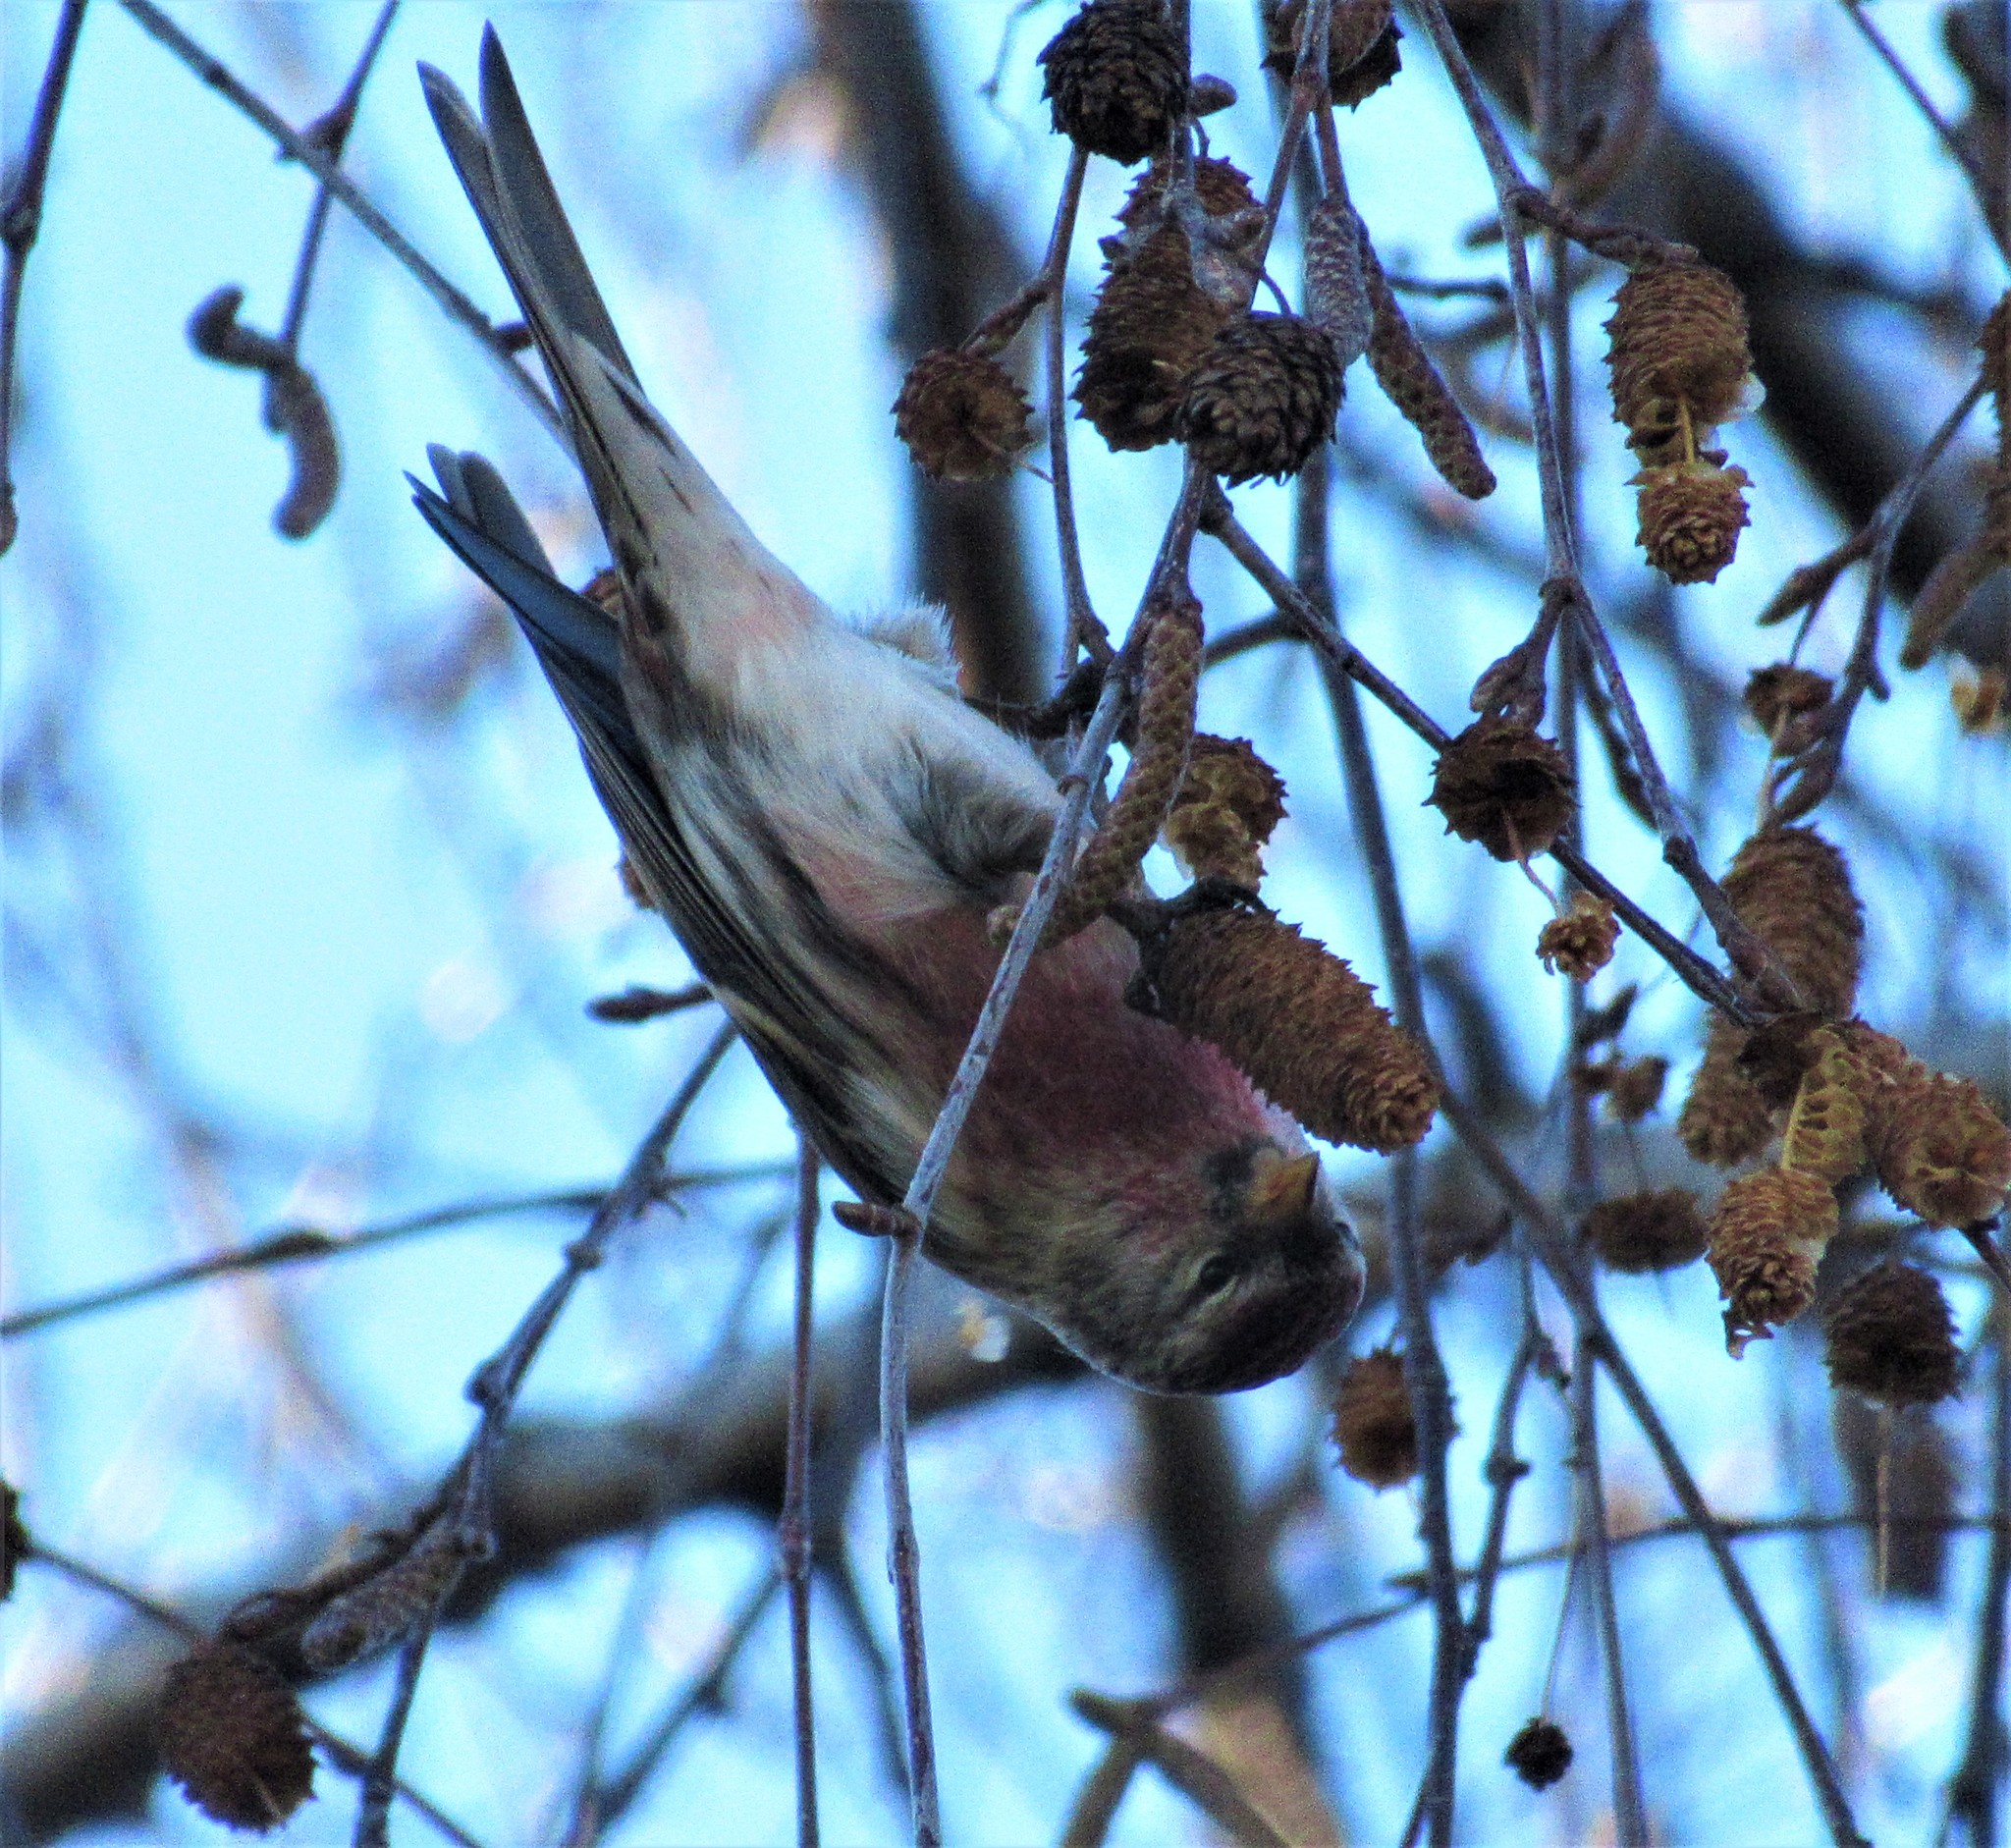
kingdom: Animalia
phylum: Chordata
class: Aves
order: Passeriformes
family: Fringillidae
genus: Acanthis
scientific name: Acanthis flammea
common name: Common redpoll
